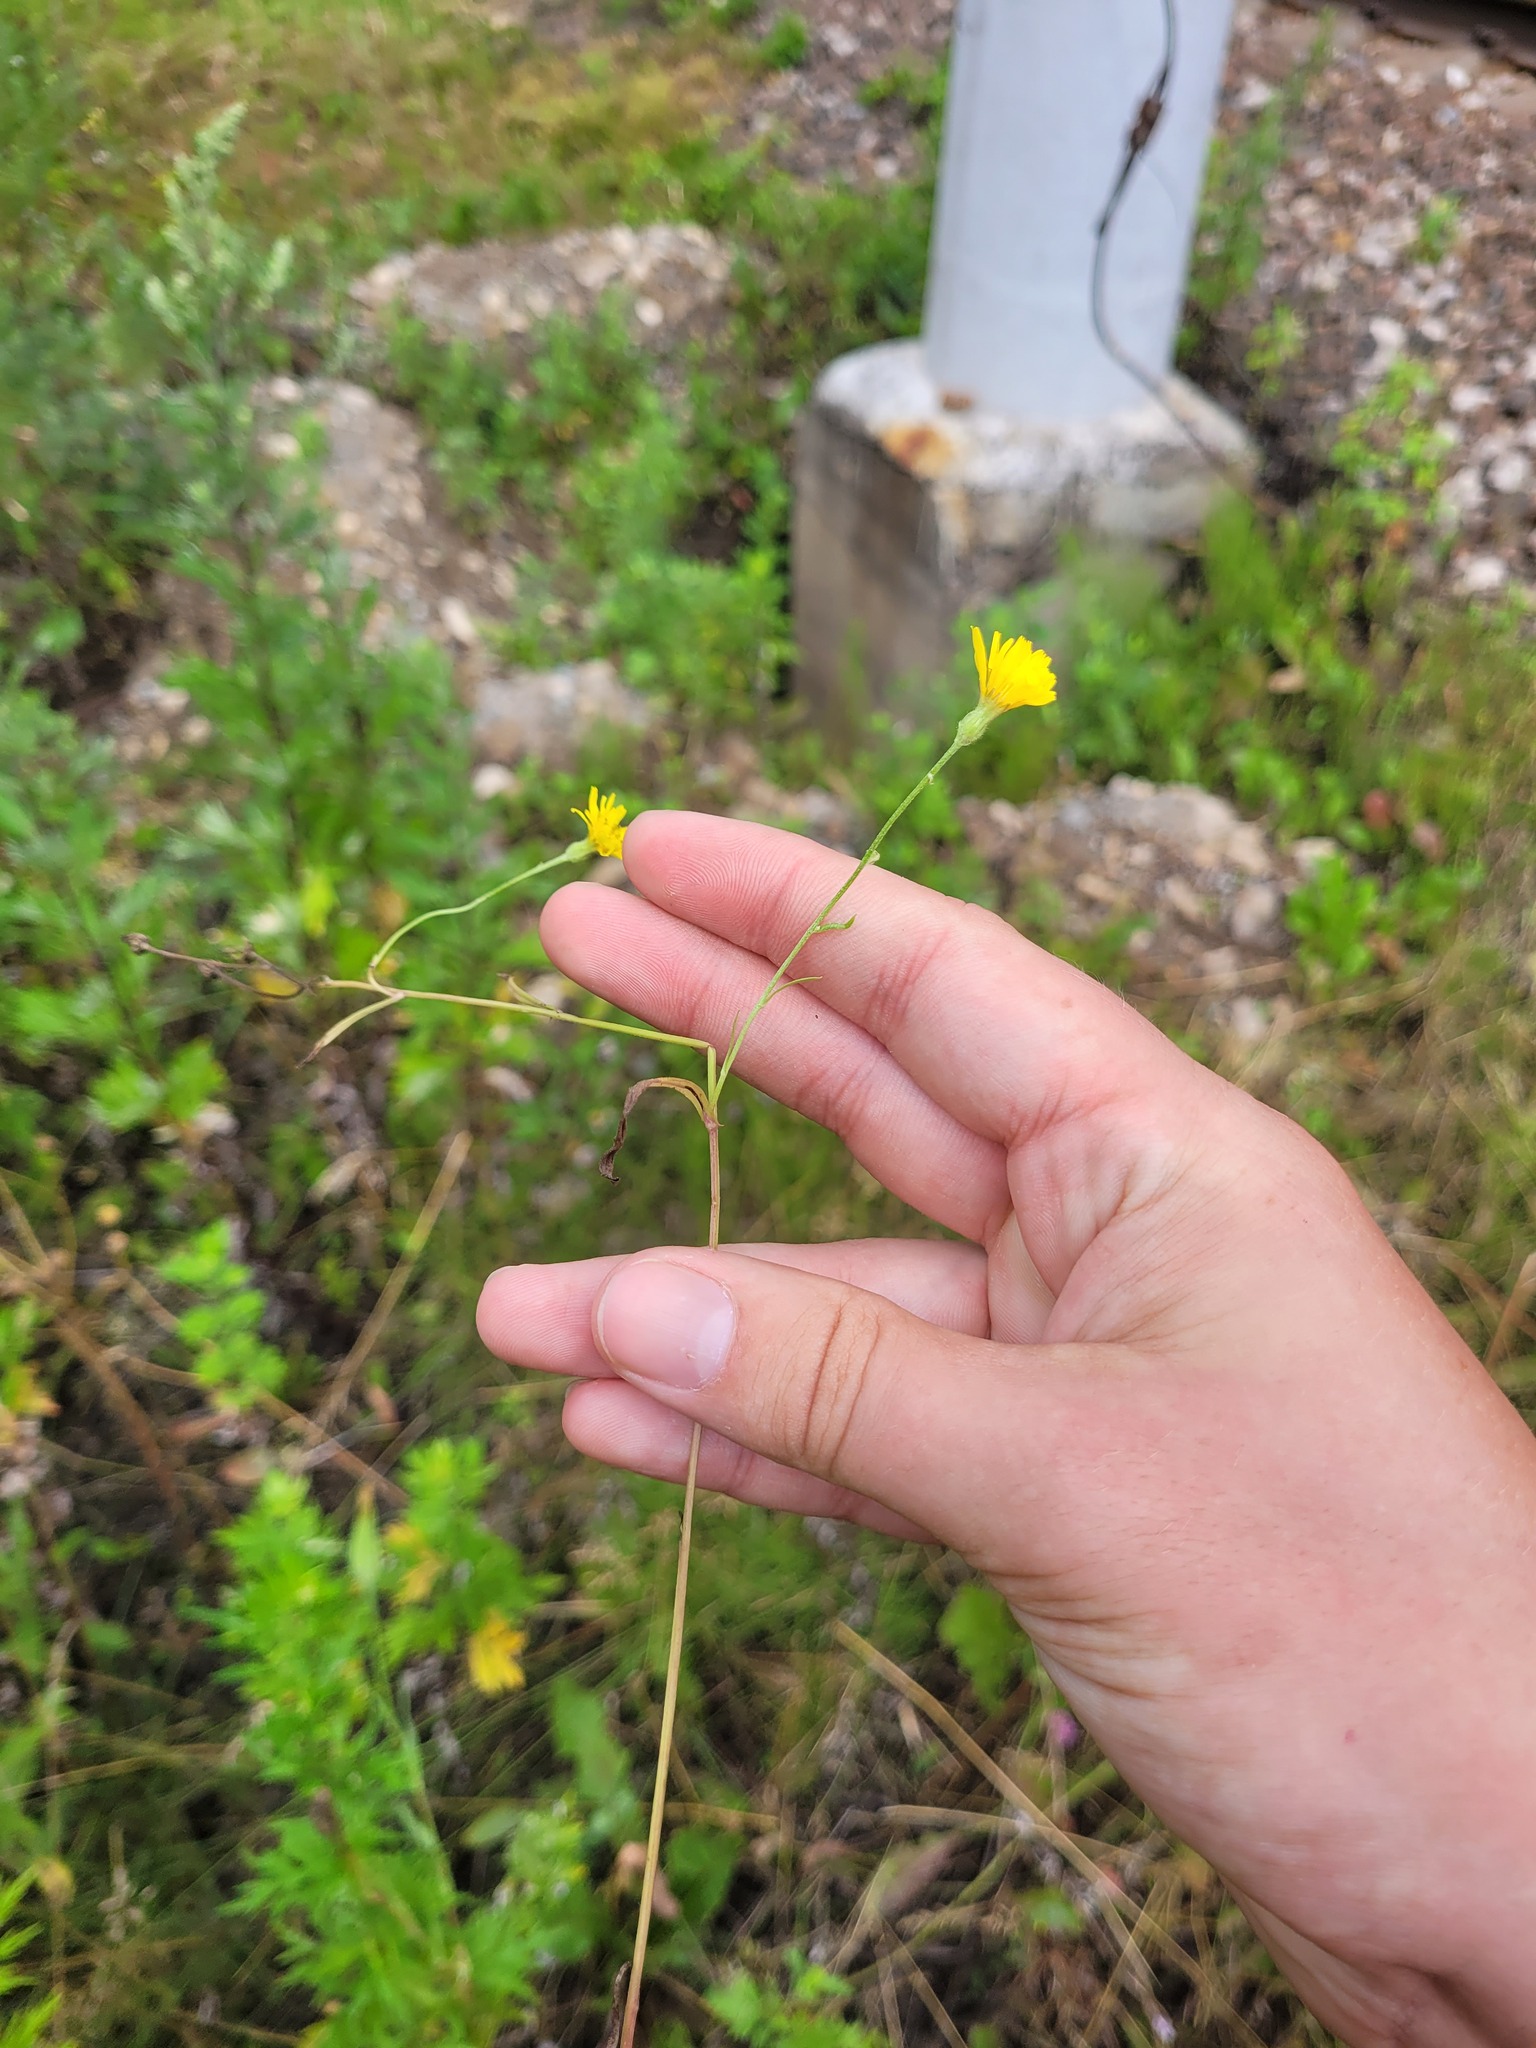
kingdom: Plantae
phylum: Tracheophyta
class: Magnoliopsida
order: Asterales
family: Asteraceae
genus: Crepis
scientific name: Crepis tectorum
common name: Narrow-leaved hawk's-beard
